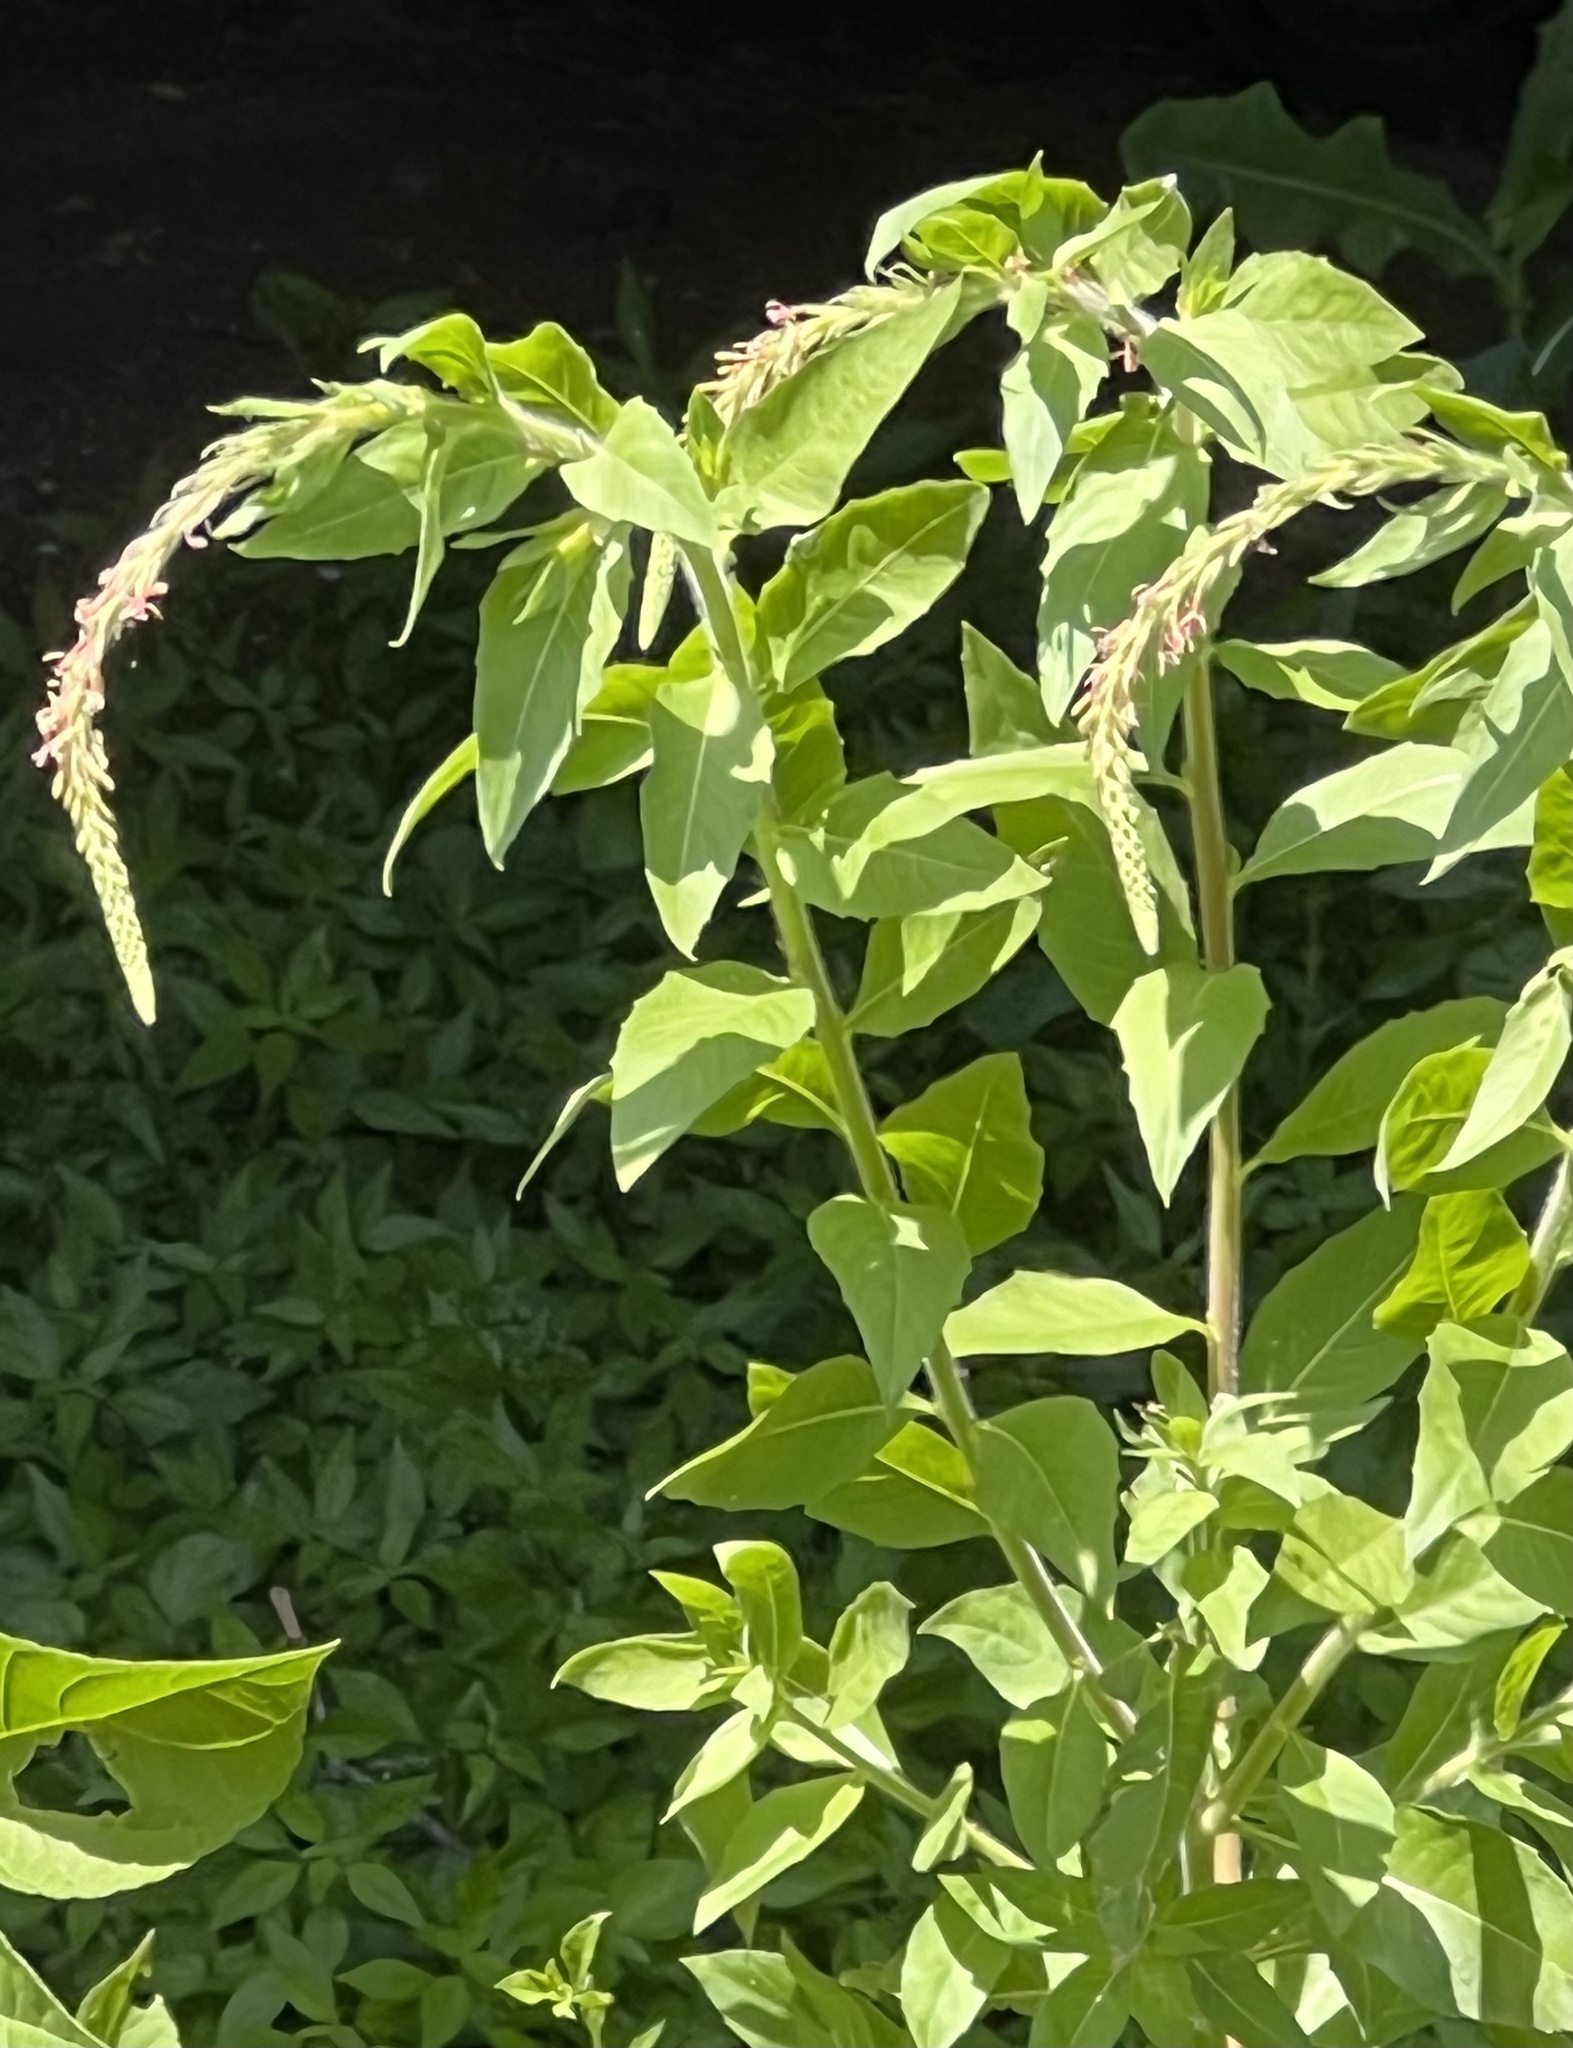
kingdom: Plantae
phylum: Tracheophyta
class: Magnoliopsida
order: Myrtales
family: Onagraceae
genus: Oenothera
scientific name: Oenothera curtiflora
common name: Velvetweed
